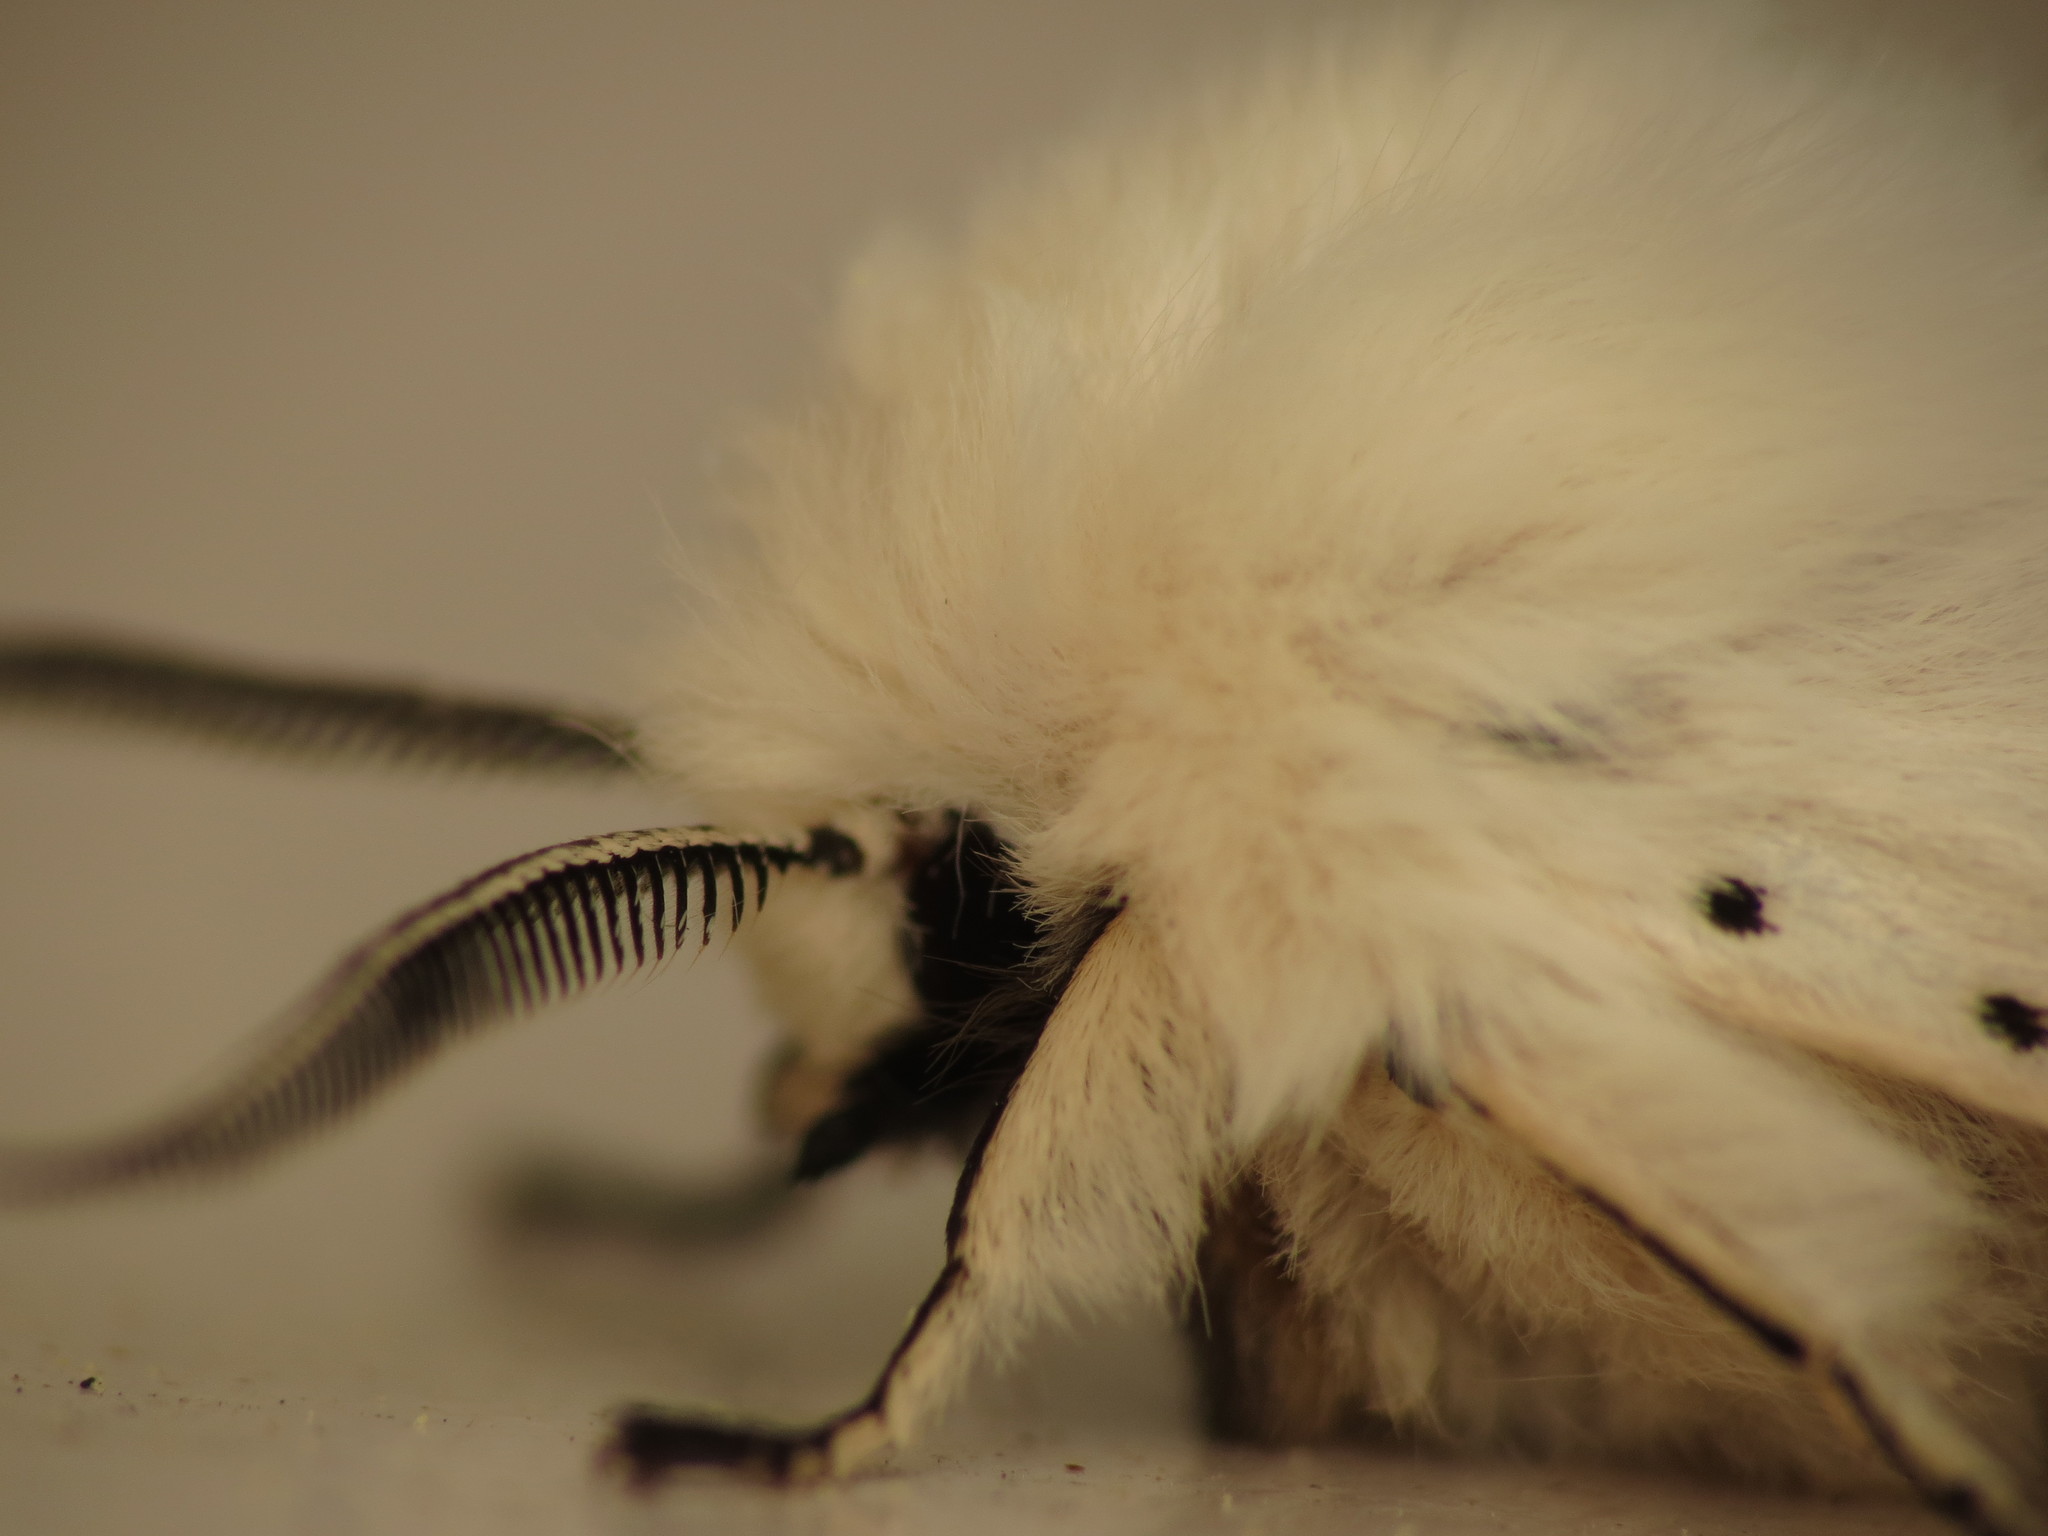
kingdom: Animalia
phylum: Arthropoda
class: Insecta
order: Lepidoptera
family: Erebidae
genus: Spilosoma
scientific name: Spilosoma lubricipeda
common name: White ermine
